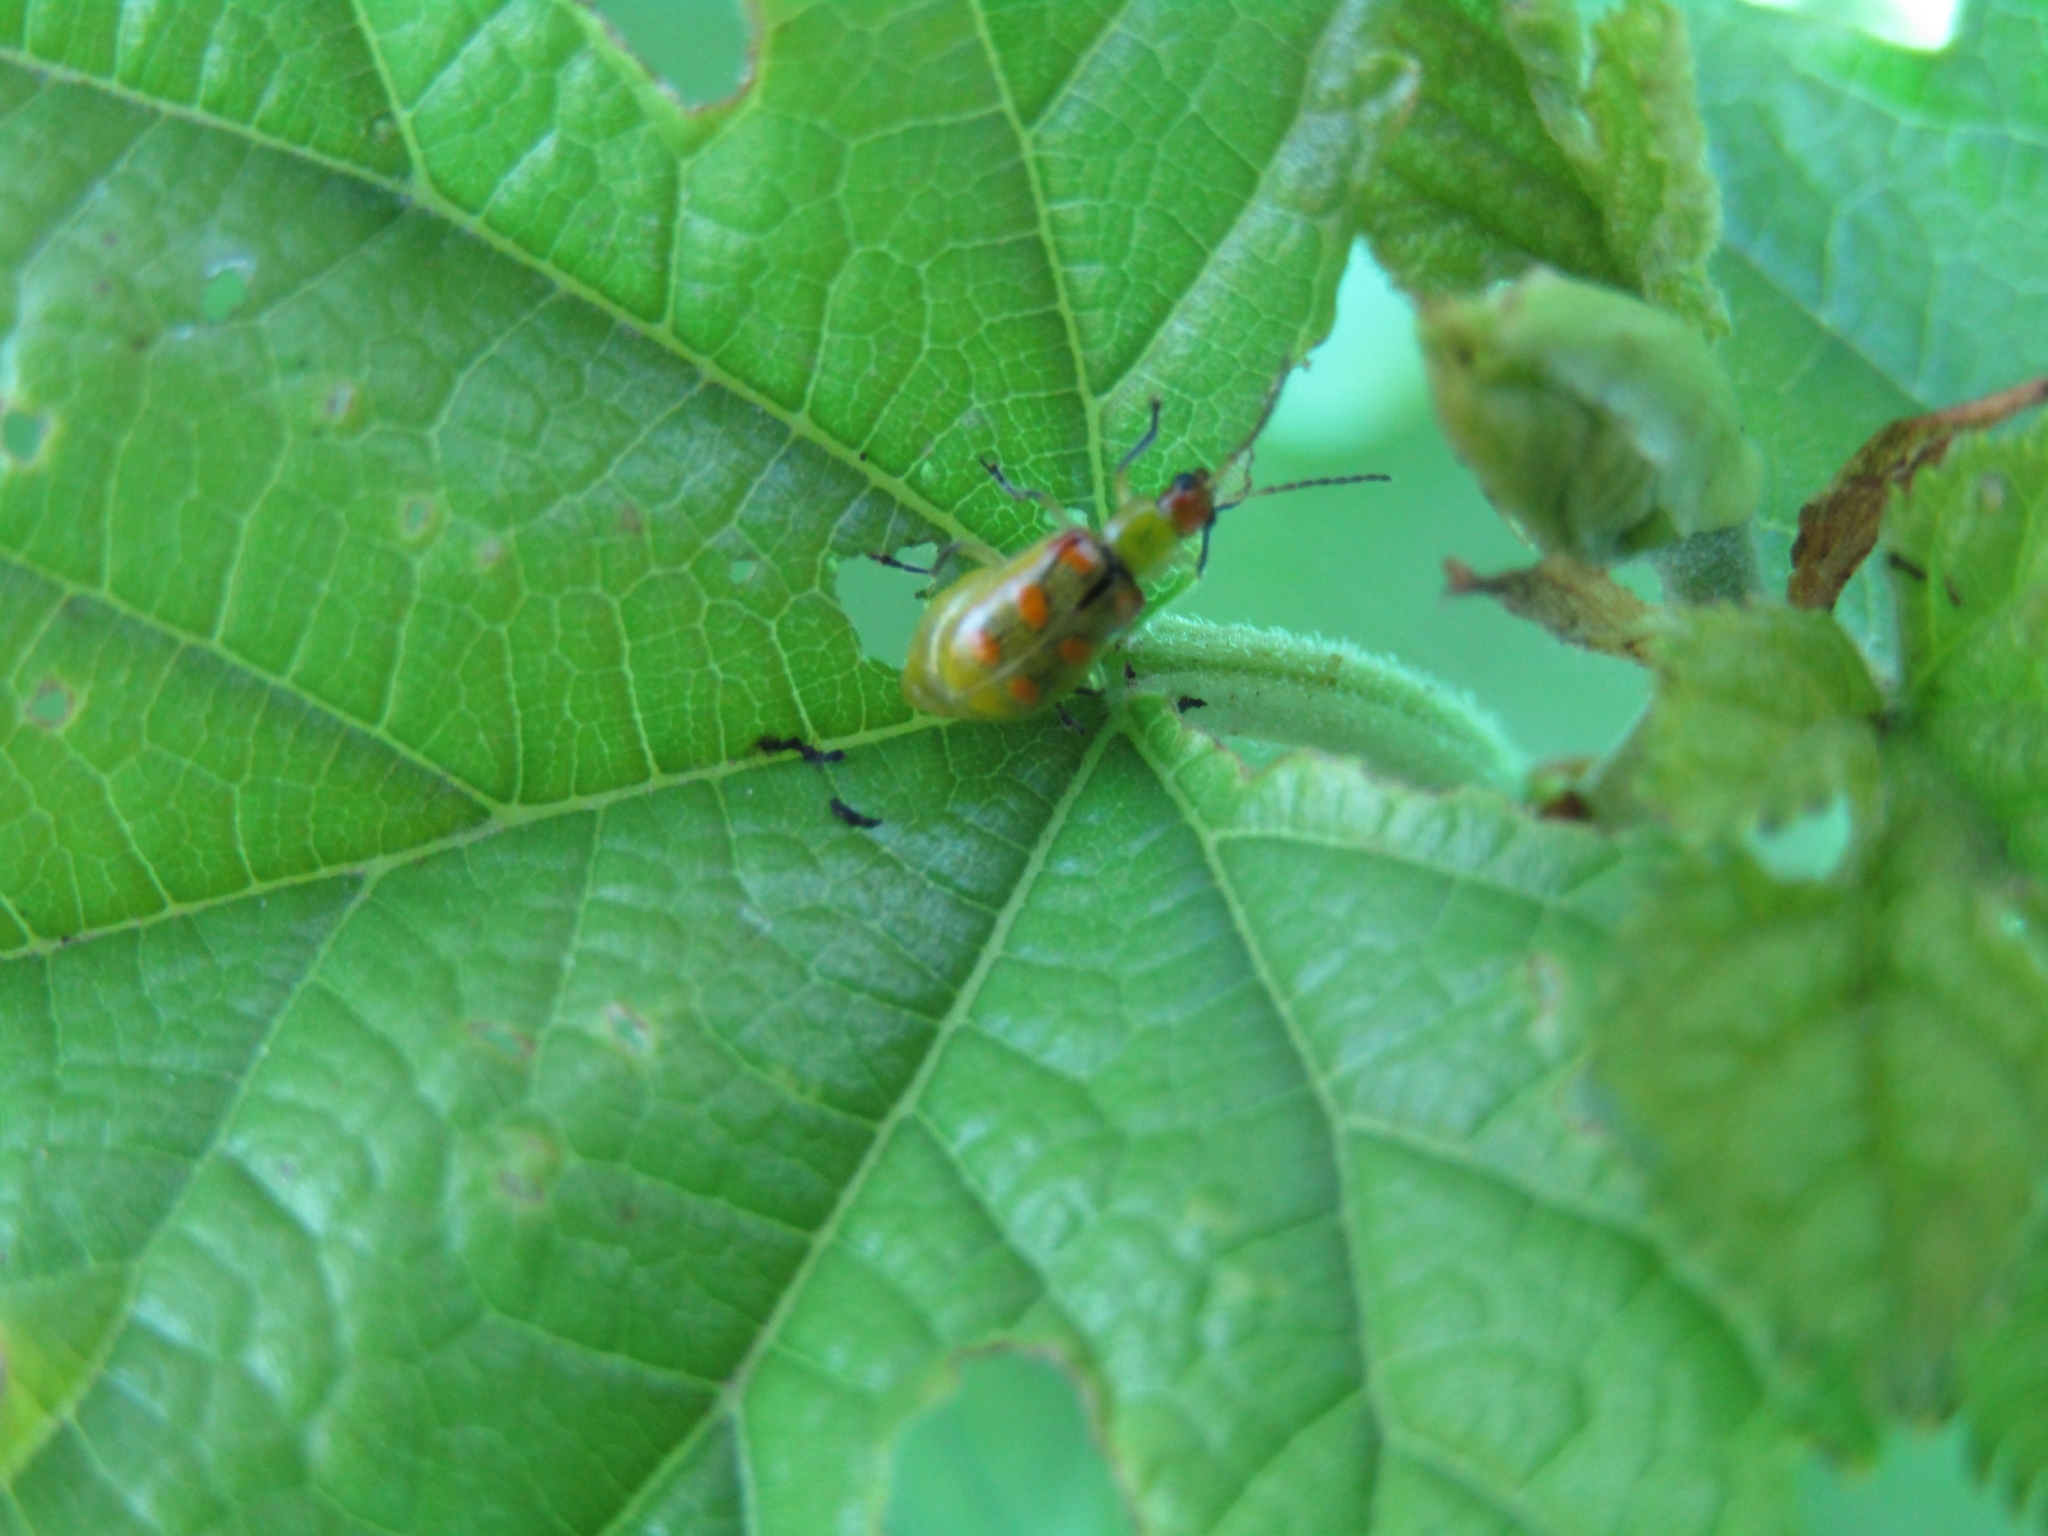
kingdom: Animalia
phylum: Arthropoda
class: Insecta
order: Coleoptera
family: Chrysomelidae
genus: Diabrotica
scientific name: Diabrotica speciosa
